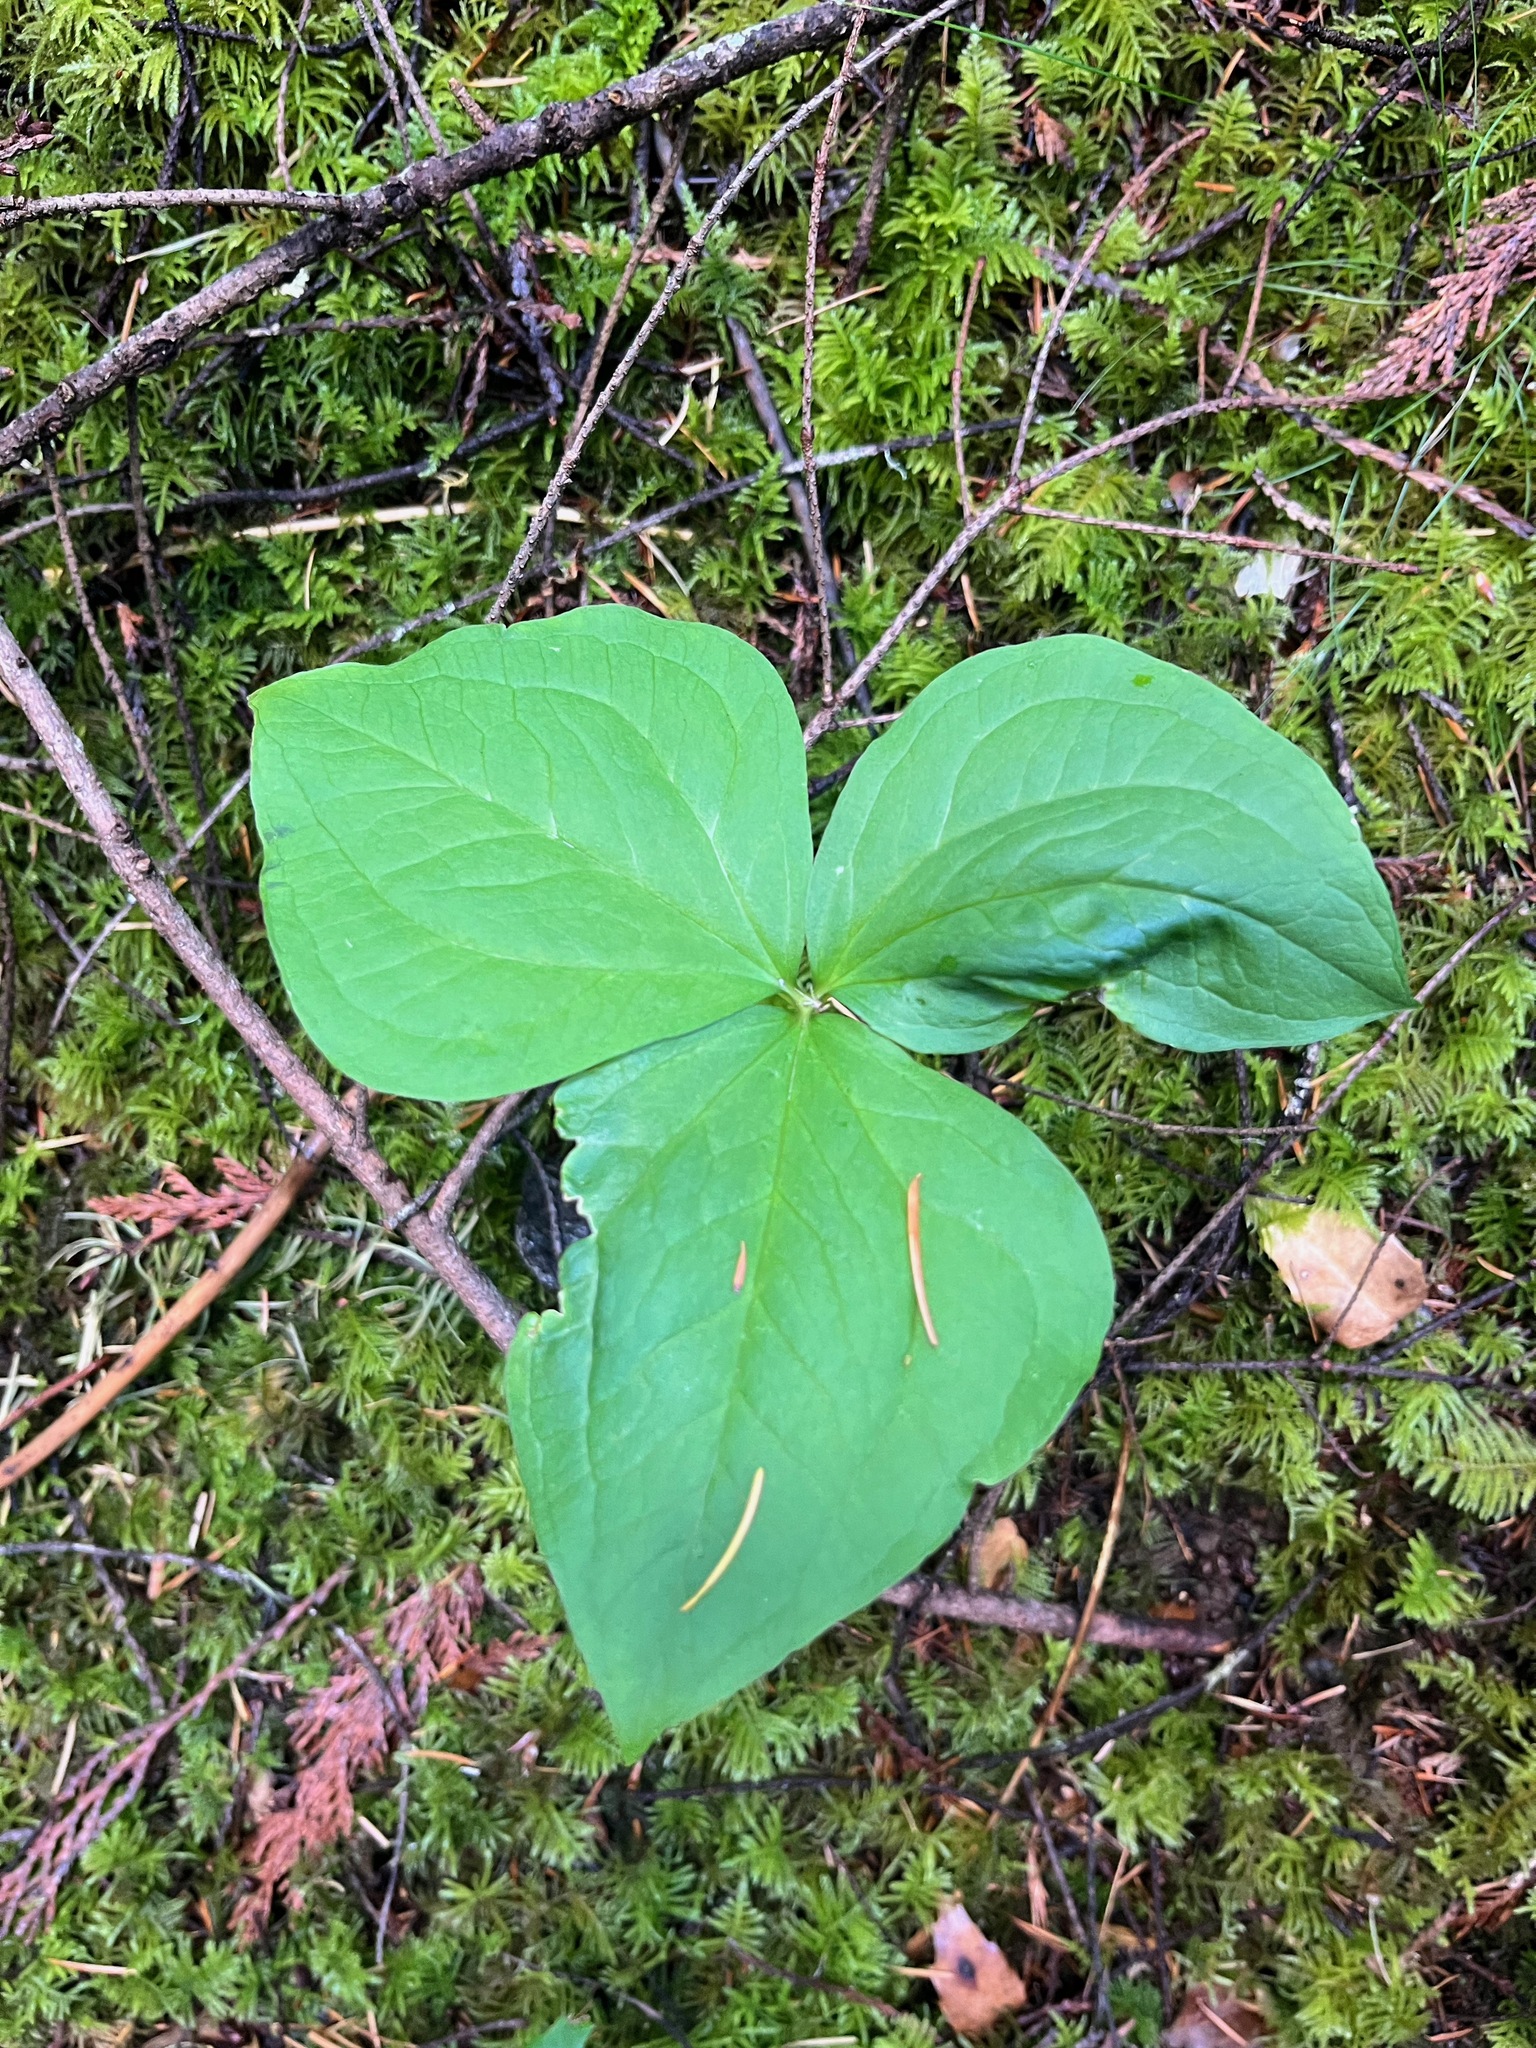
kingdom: Plantae
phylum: Tracheophyta
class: Liliopsida
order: Liliales
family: Melanthiaceae
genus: Trillium
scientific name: Trillium ovatum
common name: Pacific trillium
